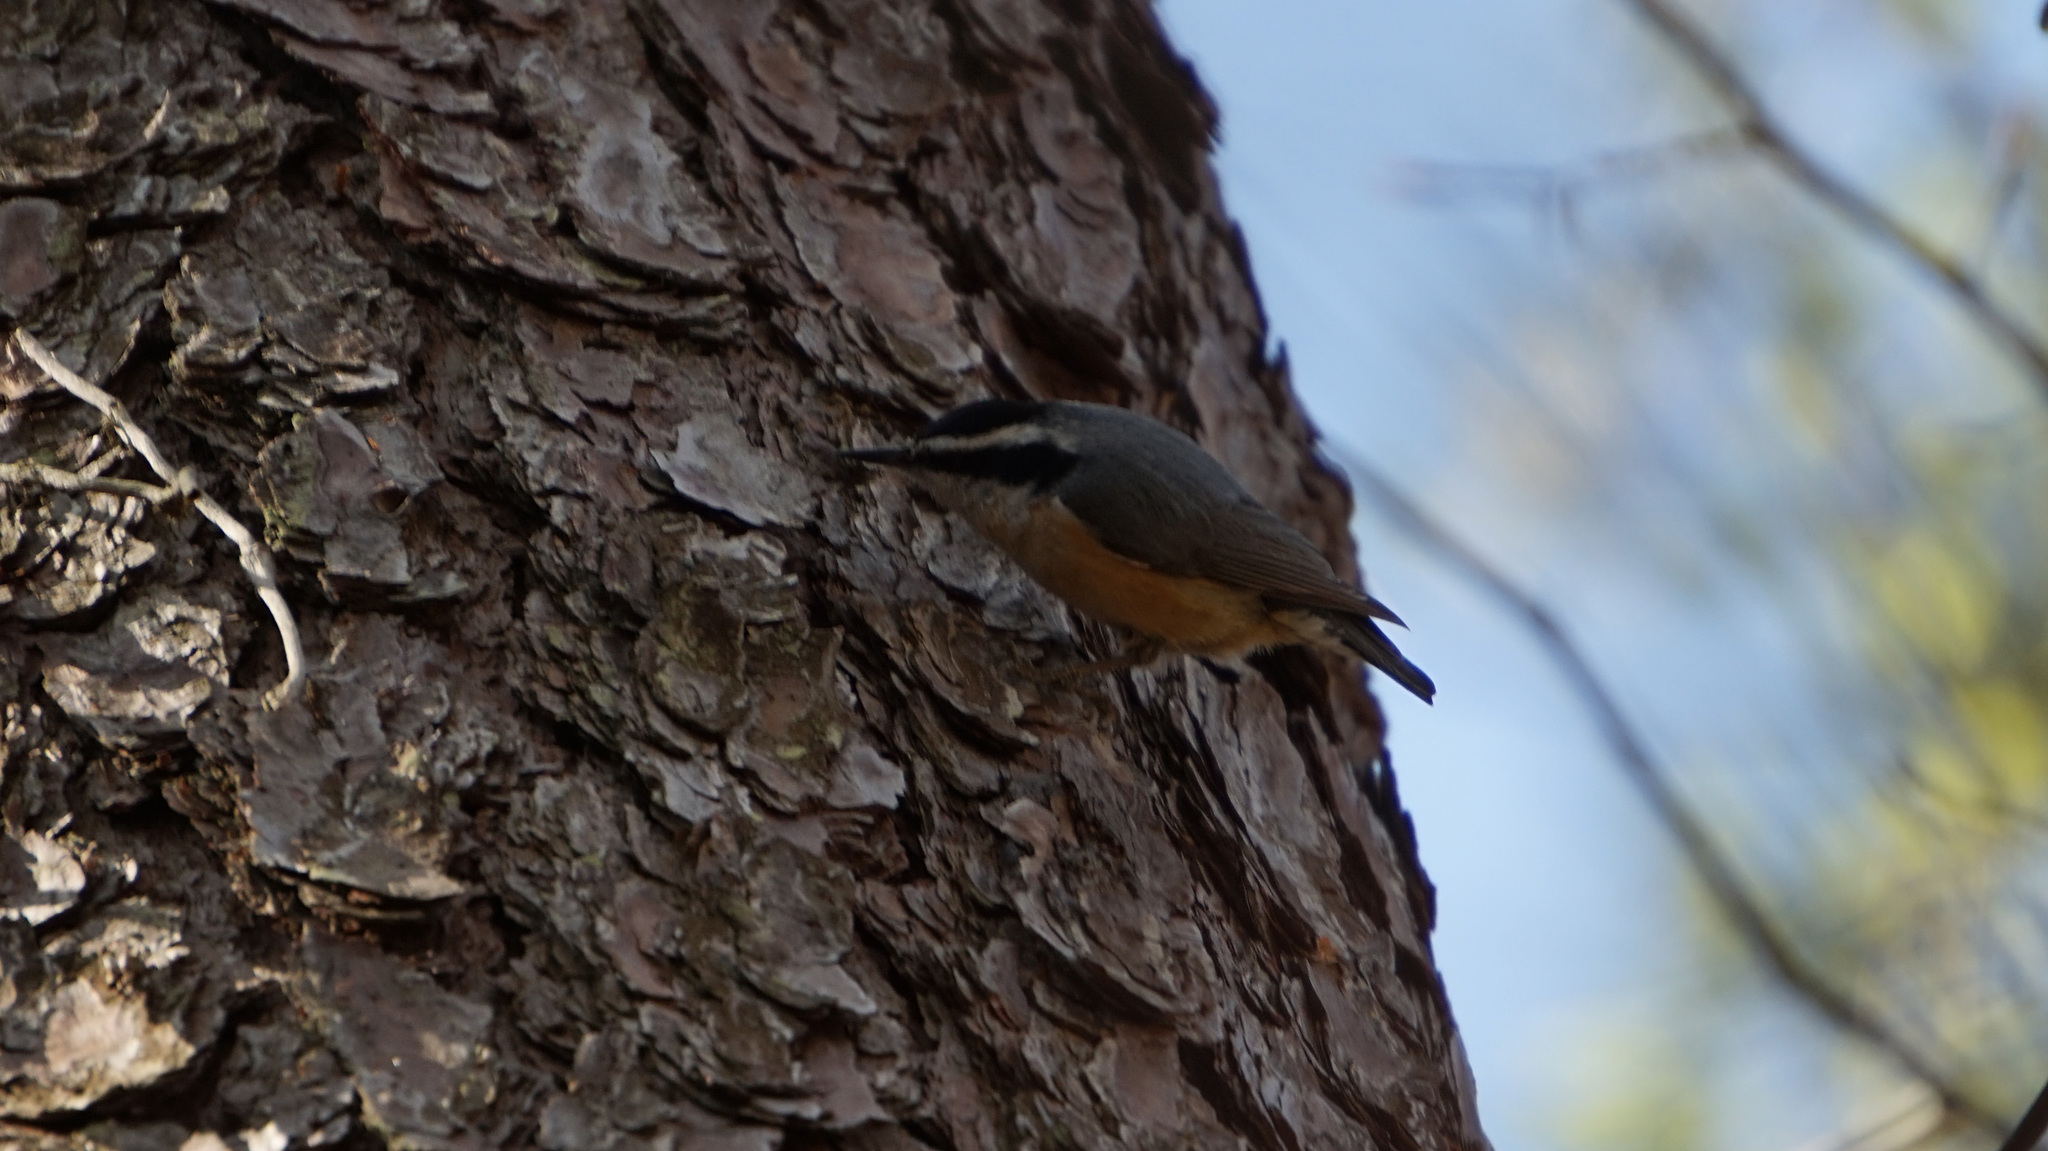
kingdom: Animalia
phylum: Chordata
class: Aves
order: Passeriformes
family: Sittidae
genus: Sitta
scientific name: Sitta canadensis
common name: Red-breasted nuthatch
